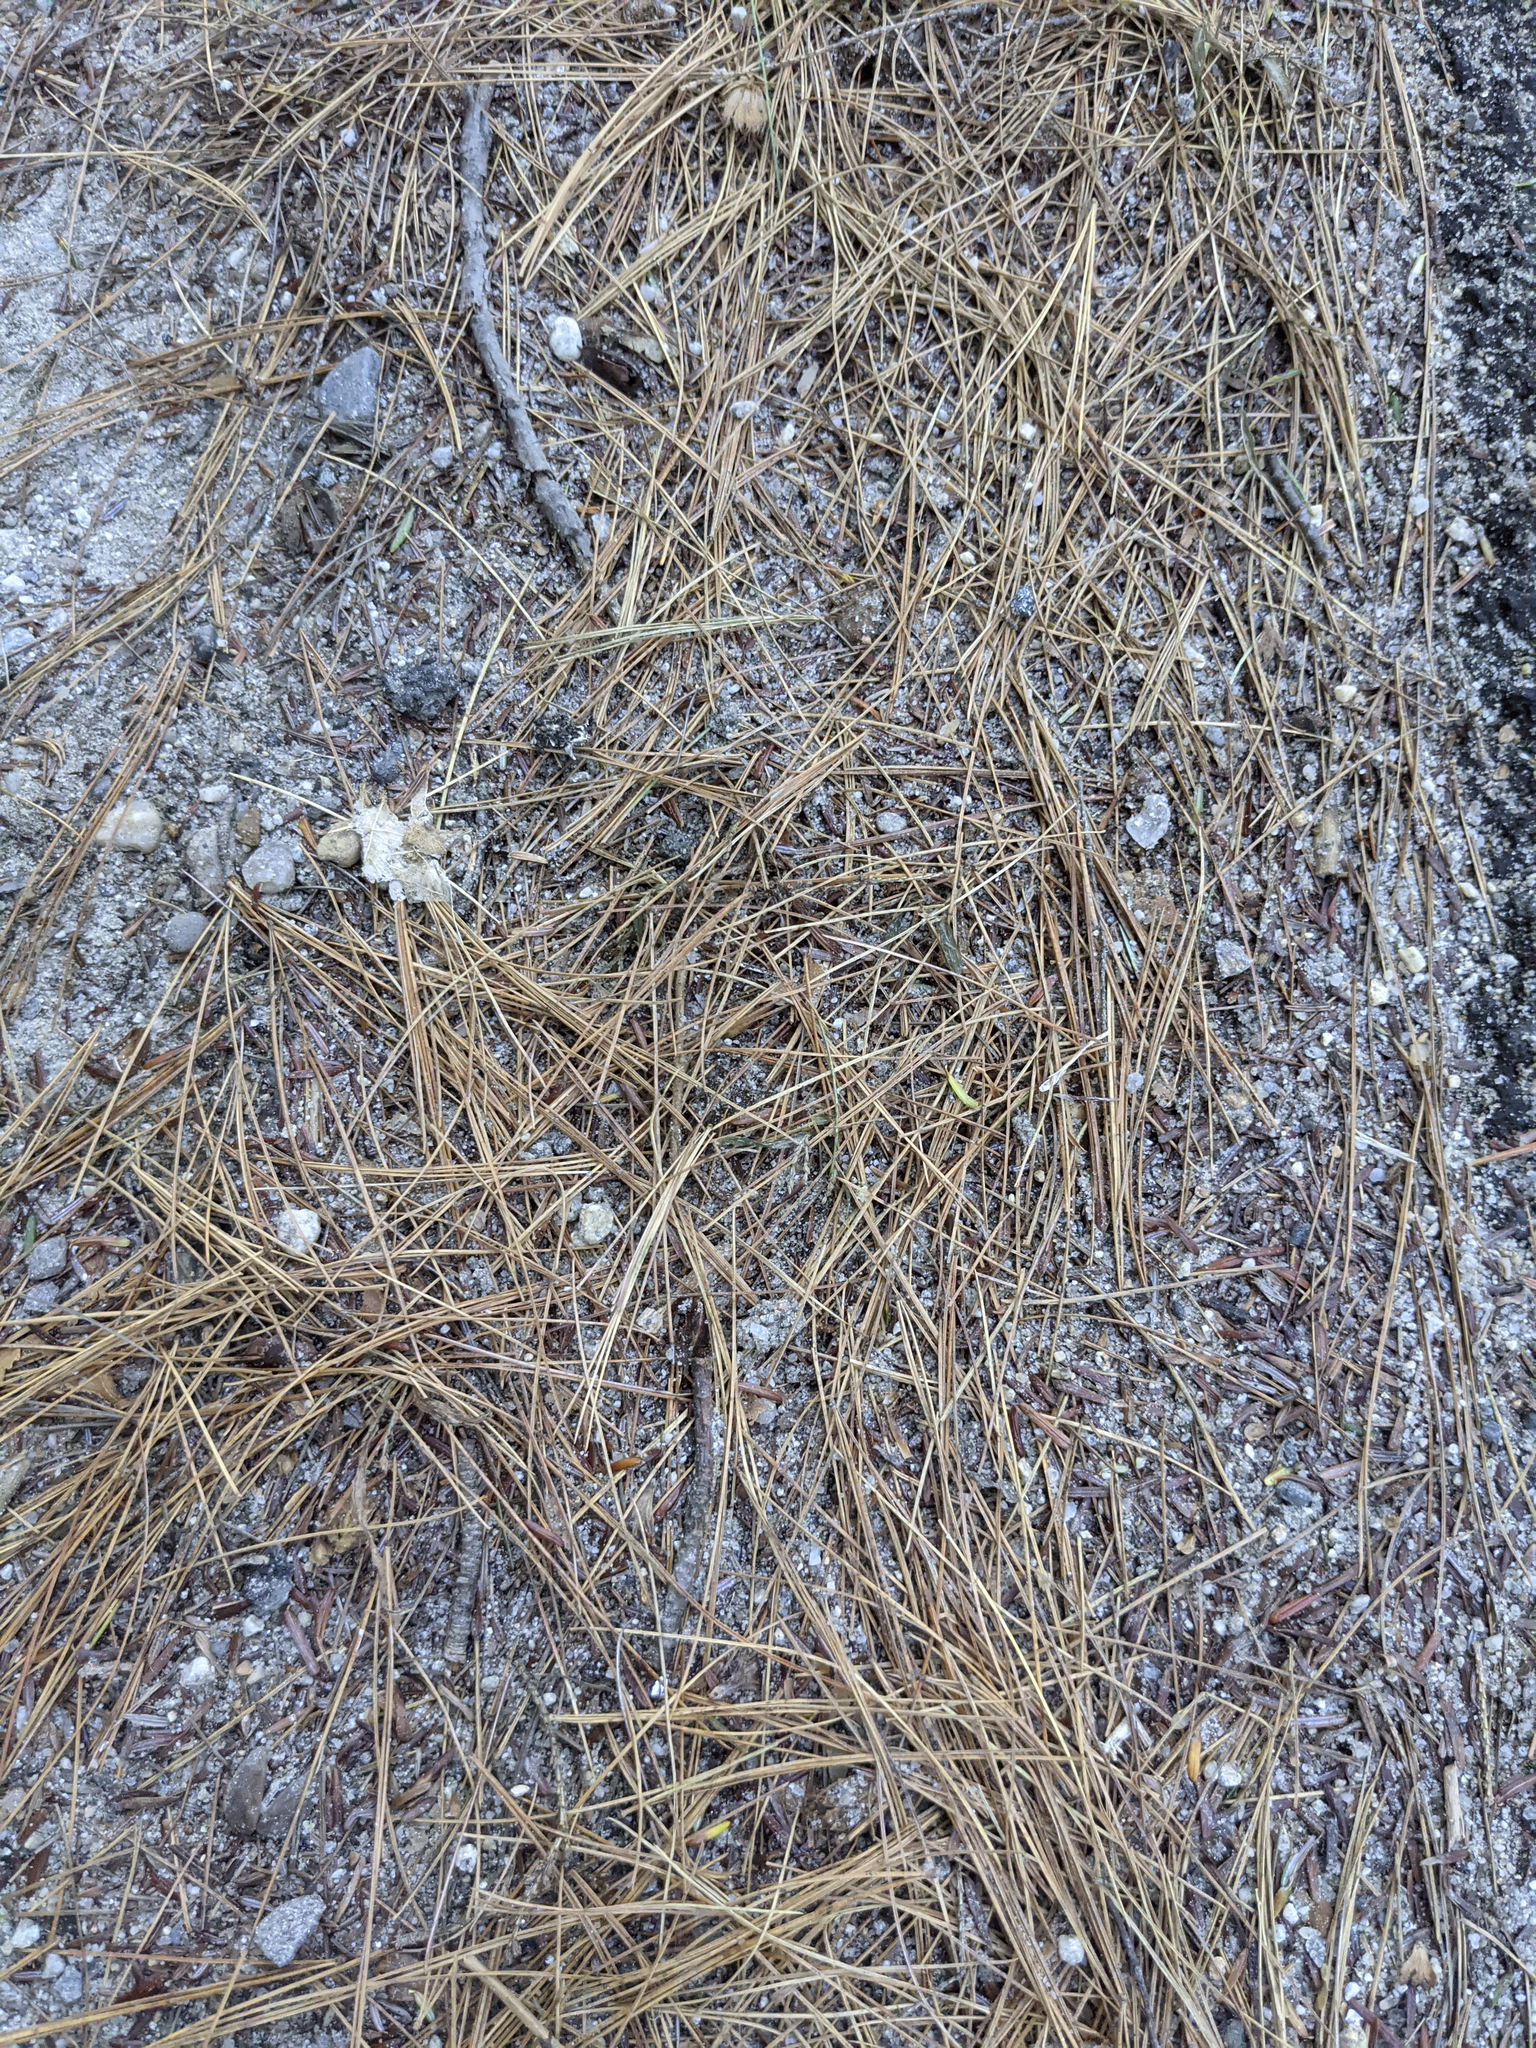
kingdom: Plantae
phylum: Tracheophyta
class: Pinopsida
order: Pinales
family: Pinaceae
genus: Pinus
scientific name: Pinus strobus
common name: Weymouth pine
